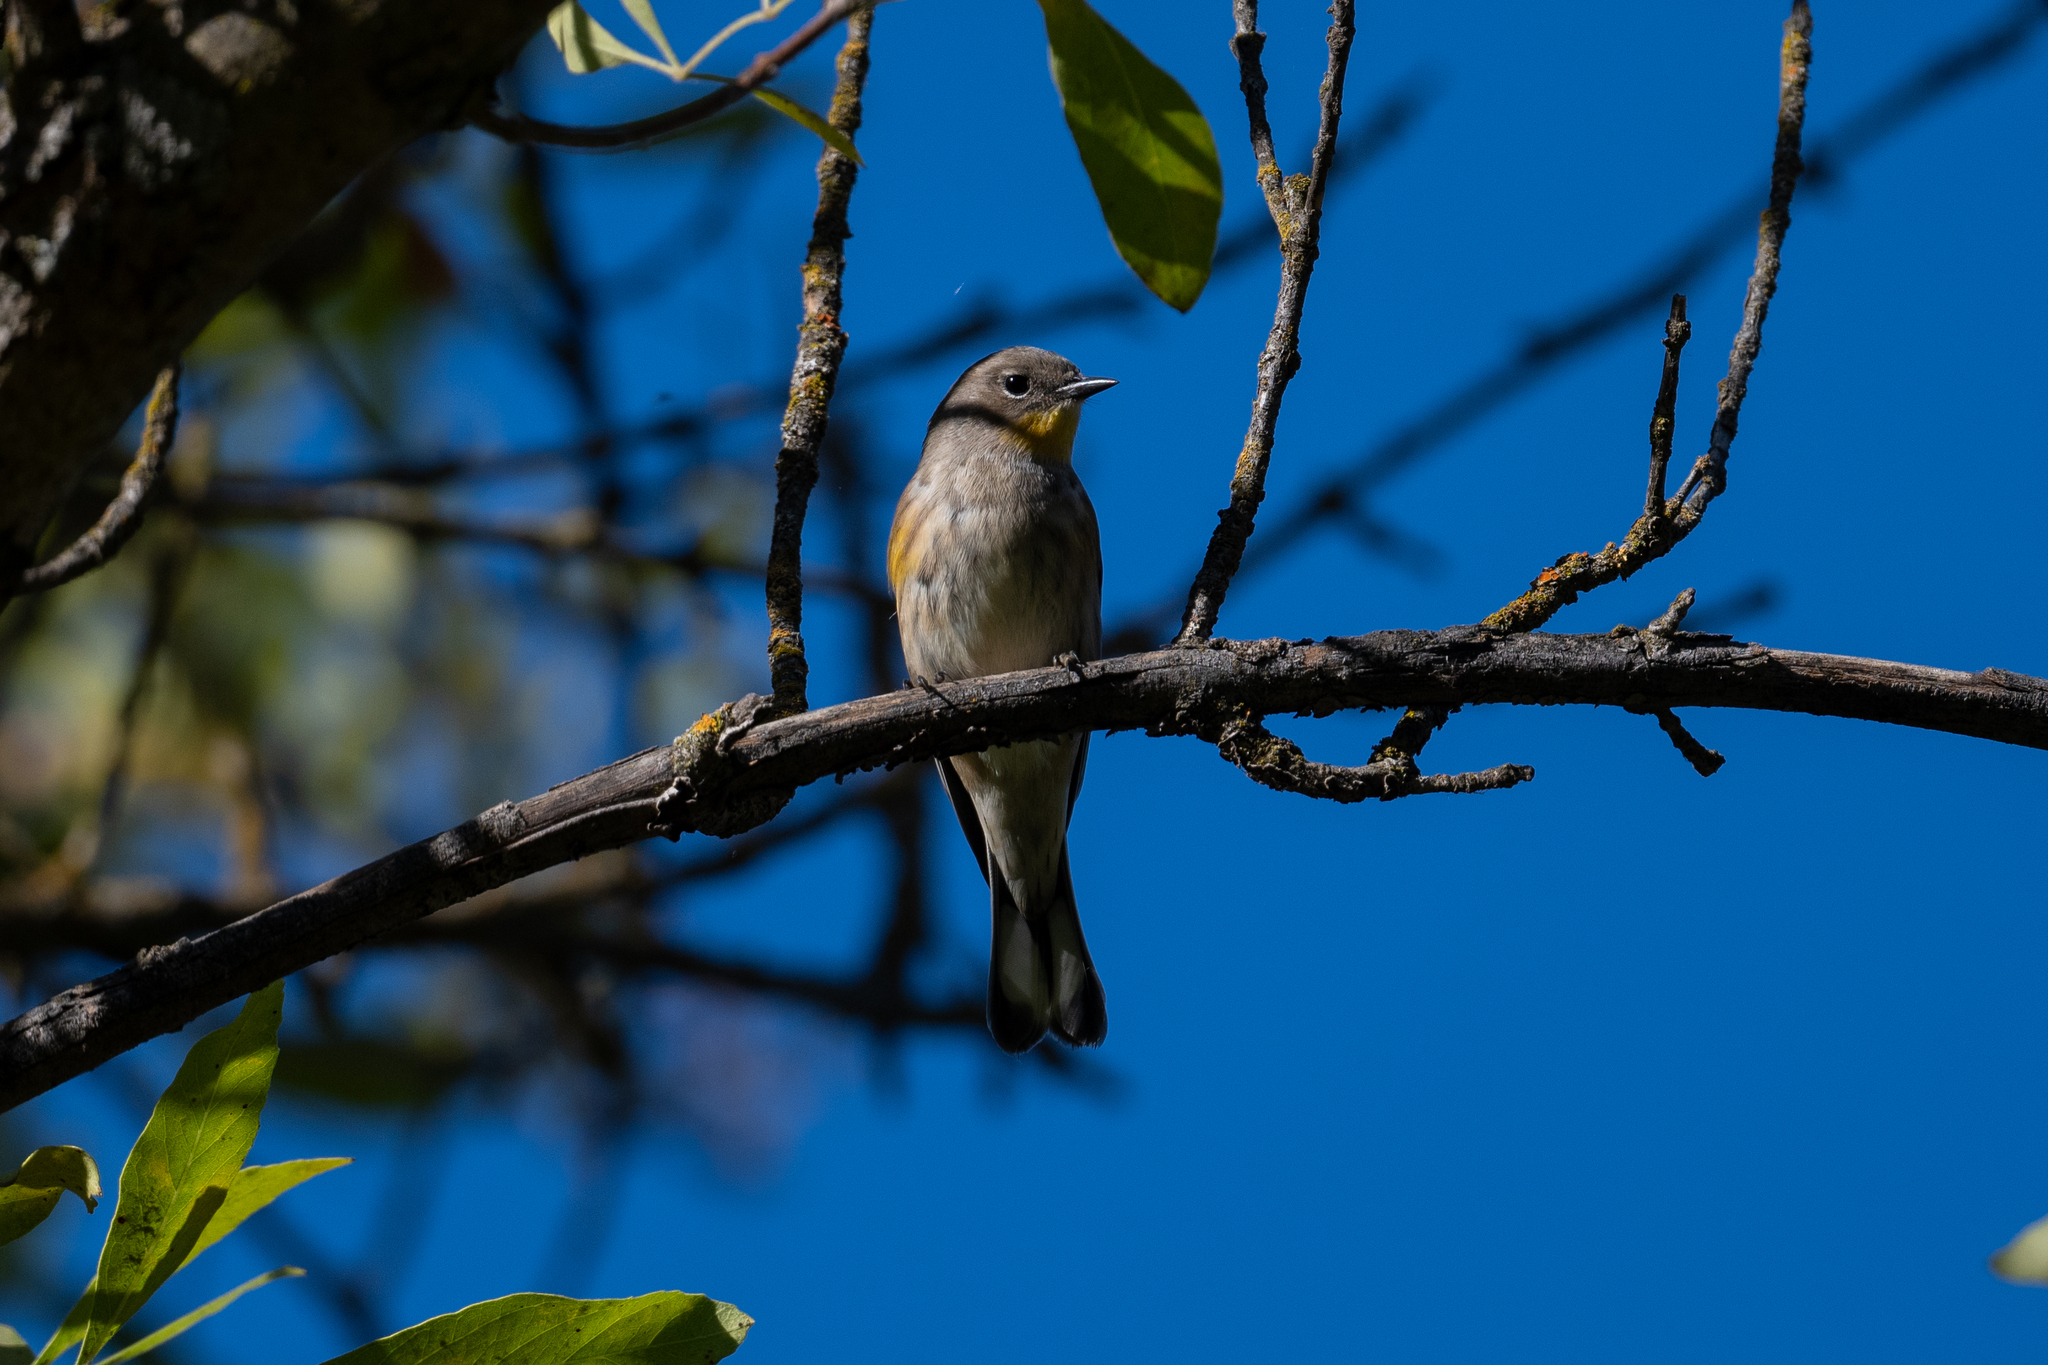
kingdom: Animalia
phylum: Chordata
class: Aves
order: Passeriformes
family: Parulidae
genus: Setophaga
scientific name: Setophaga coronata
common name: Myrtle warbler
